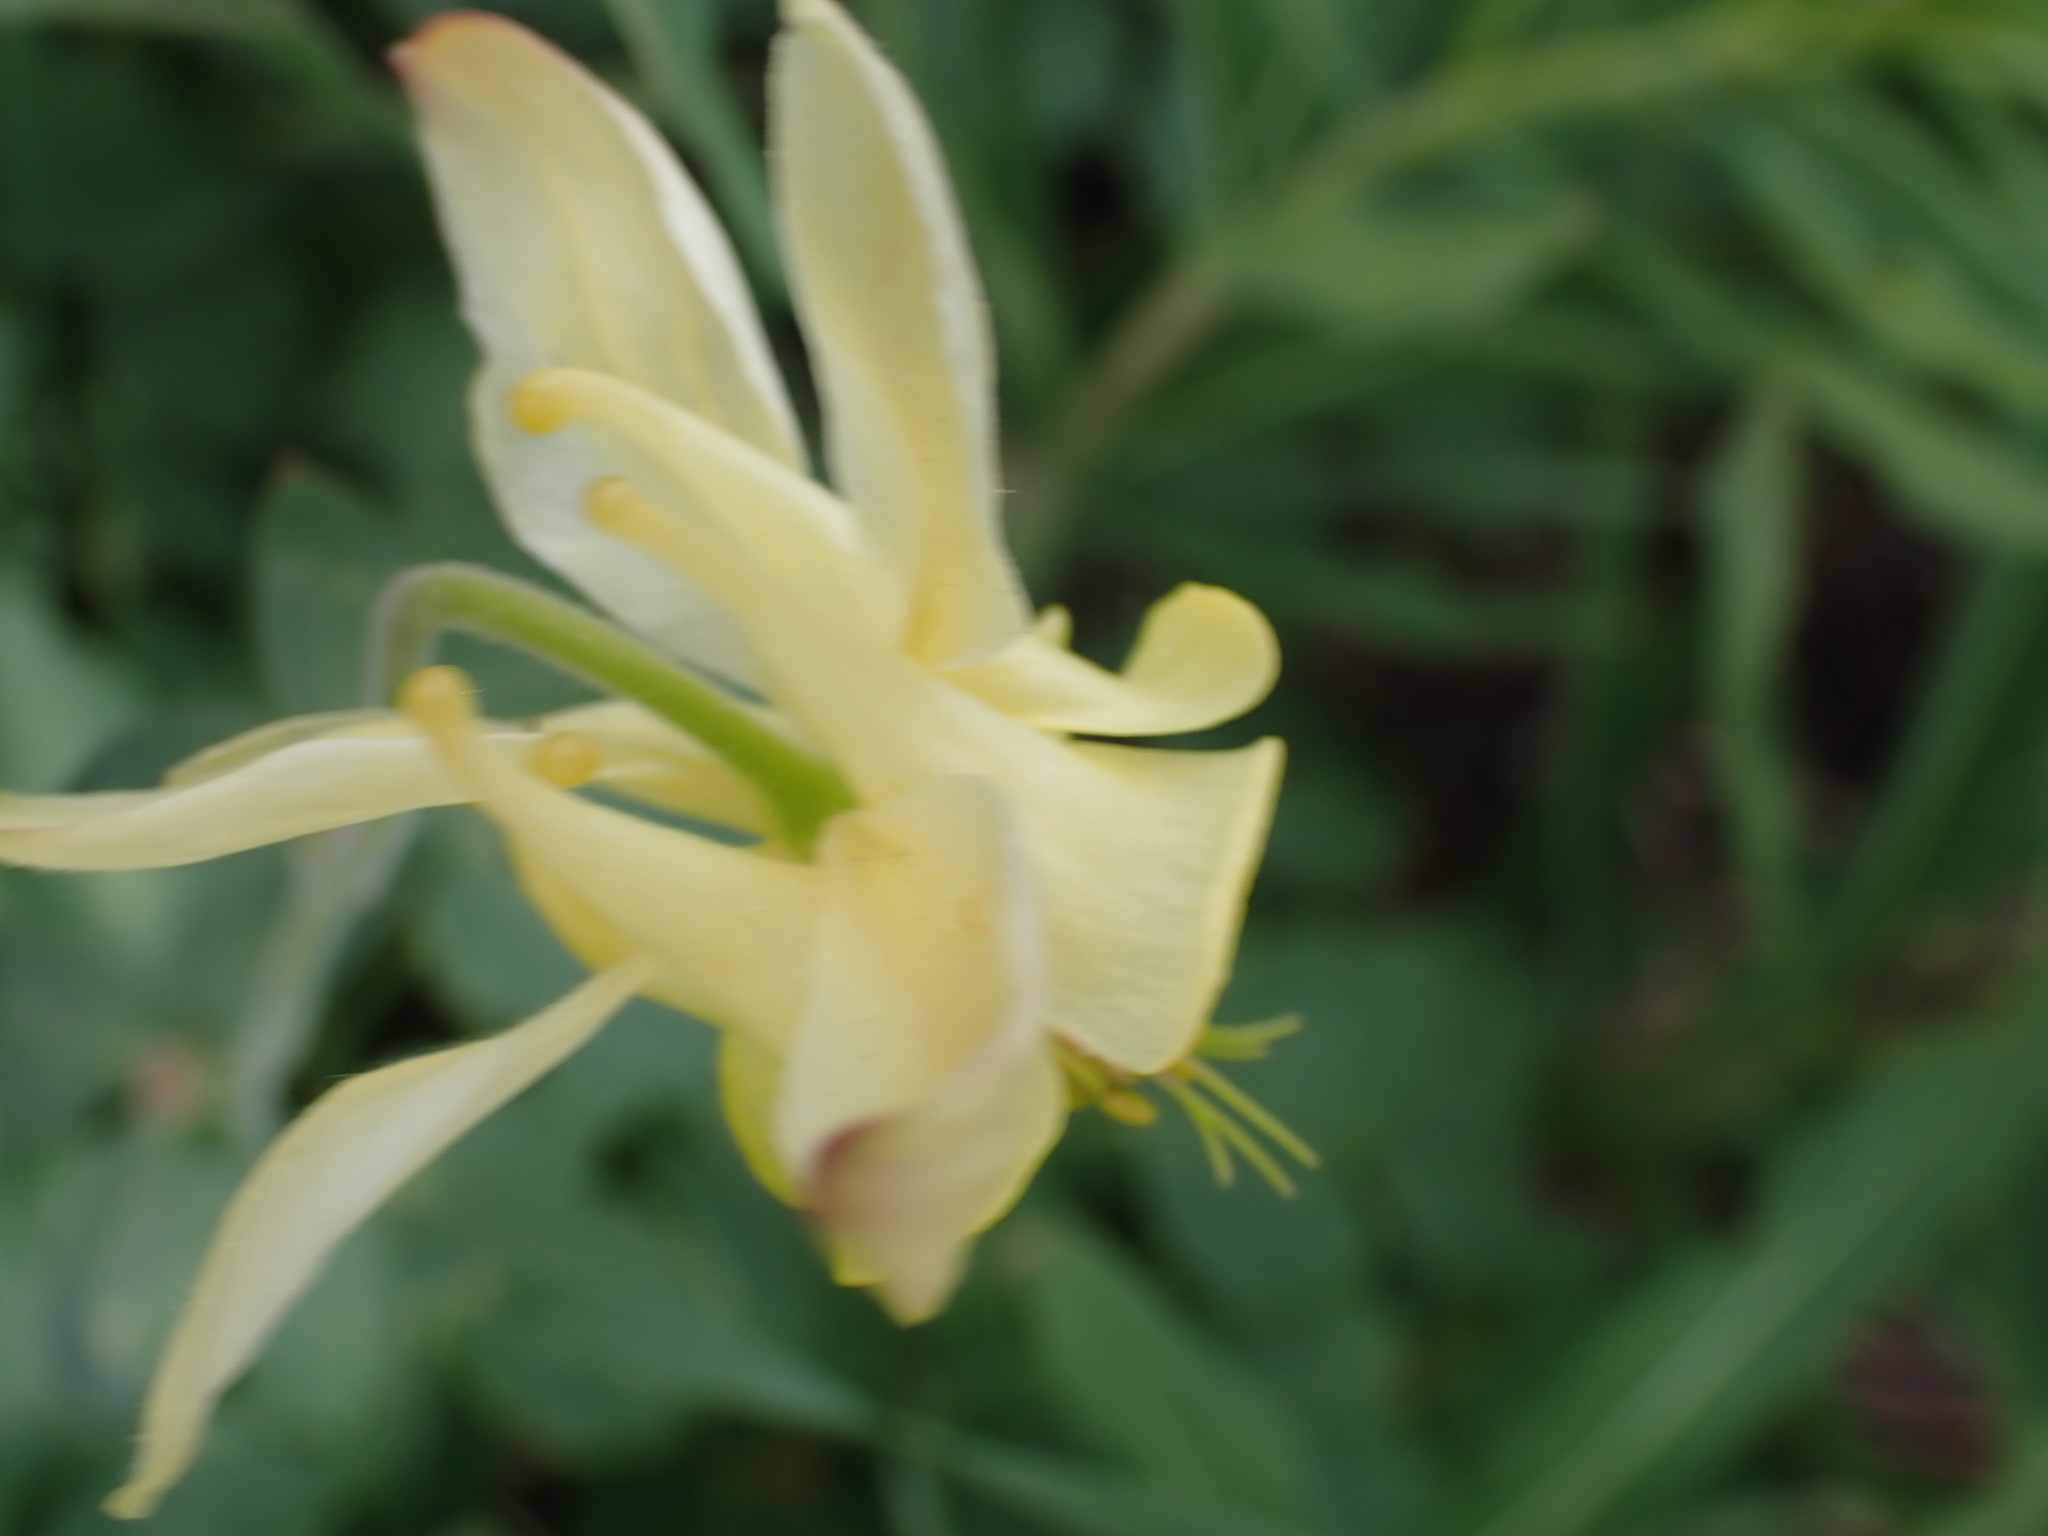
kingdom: Plantae
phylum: Tracheophyta
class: Magnoliopsida
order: Ranunculales
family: Ranunculaceae
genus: Aquilegia
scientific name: Aquilegia flavescens
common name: Yellow columbine
